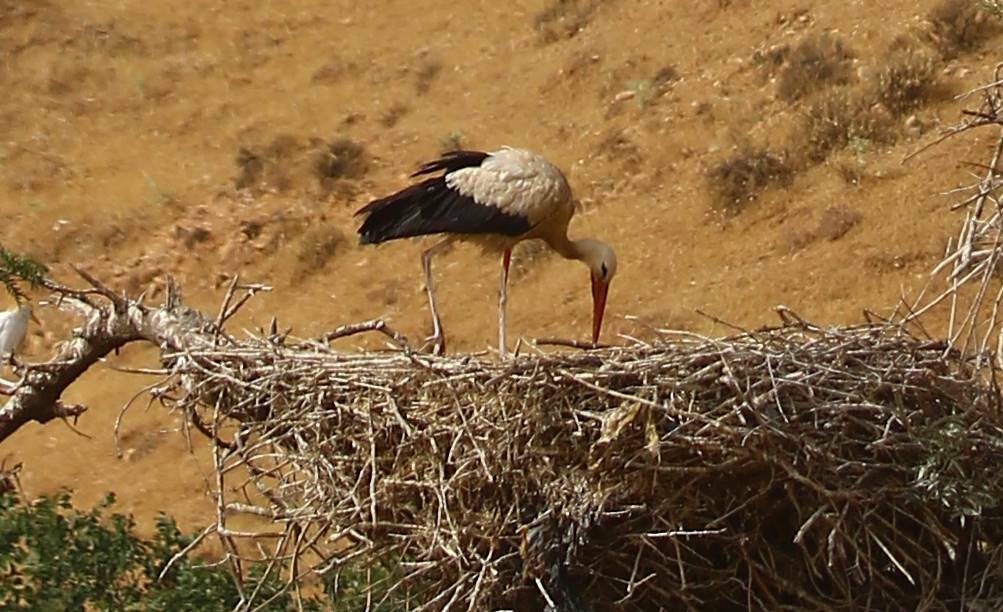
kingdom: Animalia
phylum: Chordata
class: Aves
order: Ciconiiformes
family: Ciconiidae
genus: Ciconia
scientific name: Ciconia ciconia
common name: White stork
